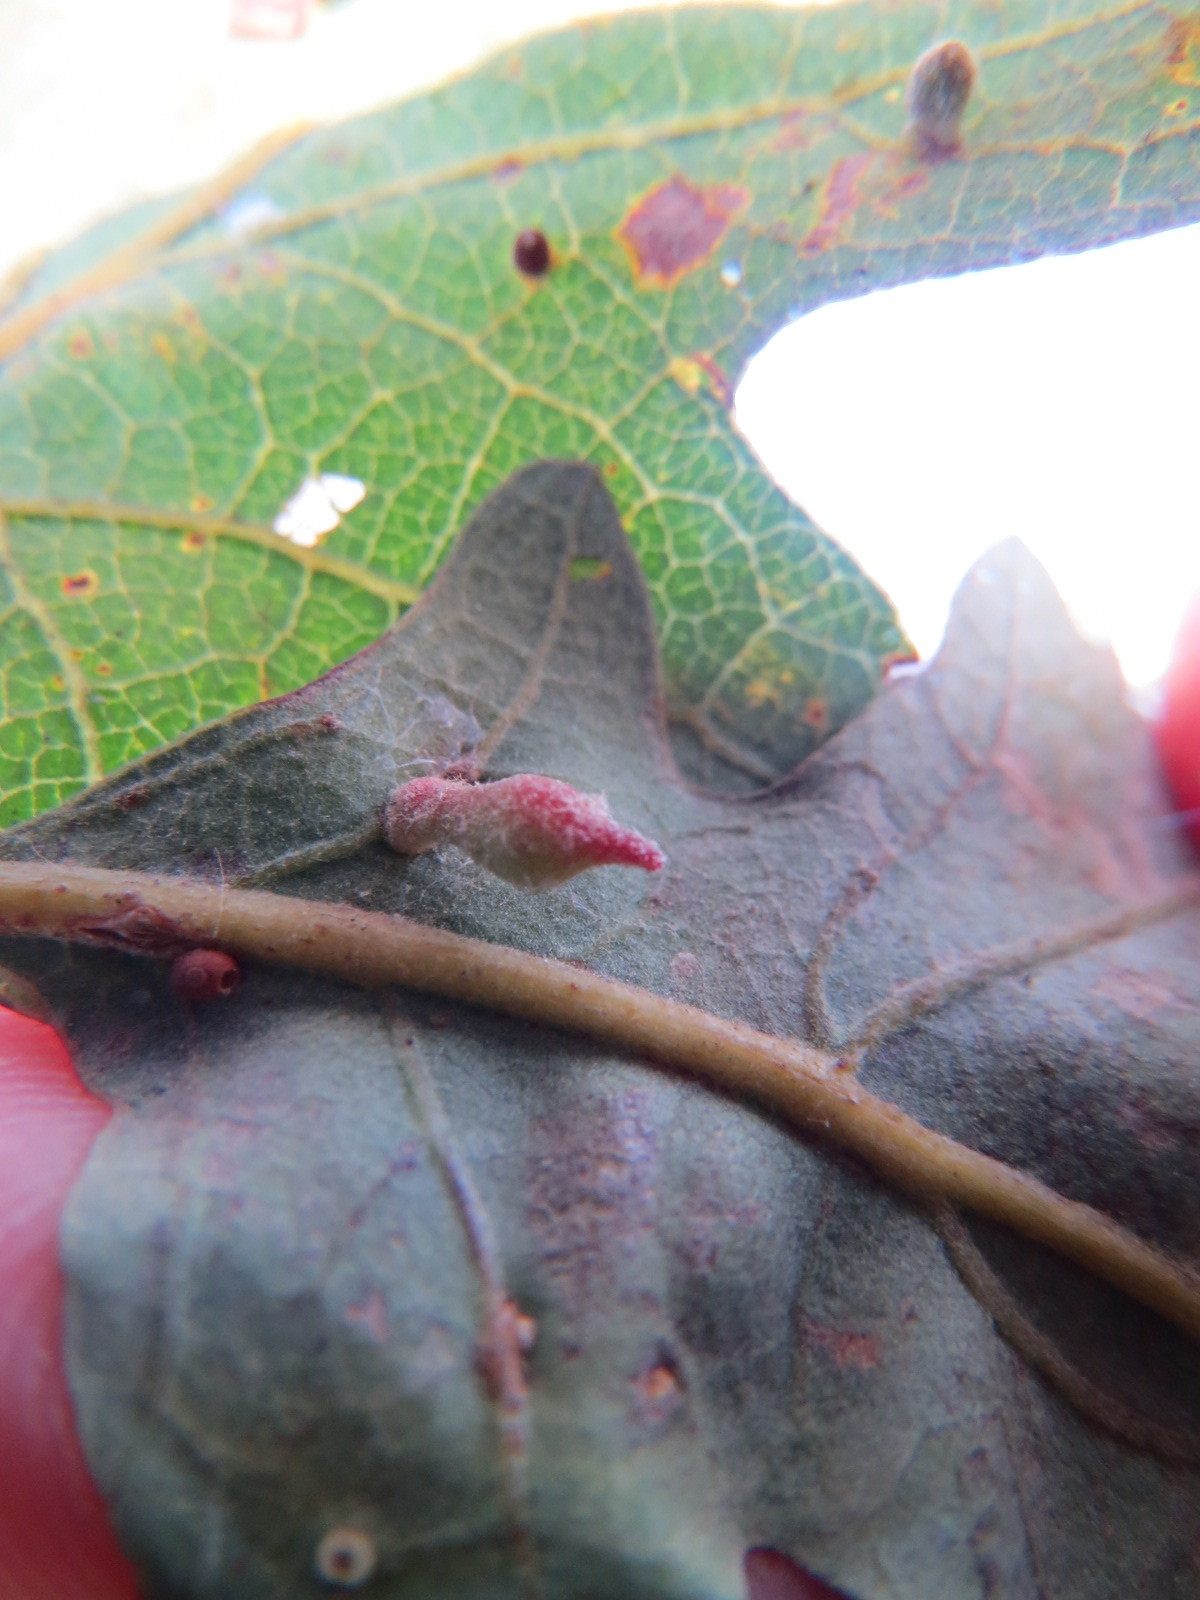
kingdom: Animalia
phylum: Arthropoda
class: Insecta
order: Hymenoptera
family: Cynipidae
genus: Atrusca
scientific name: Atrusca
